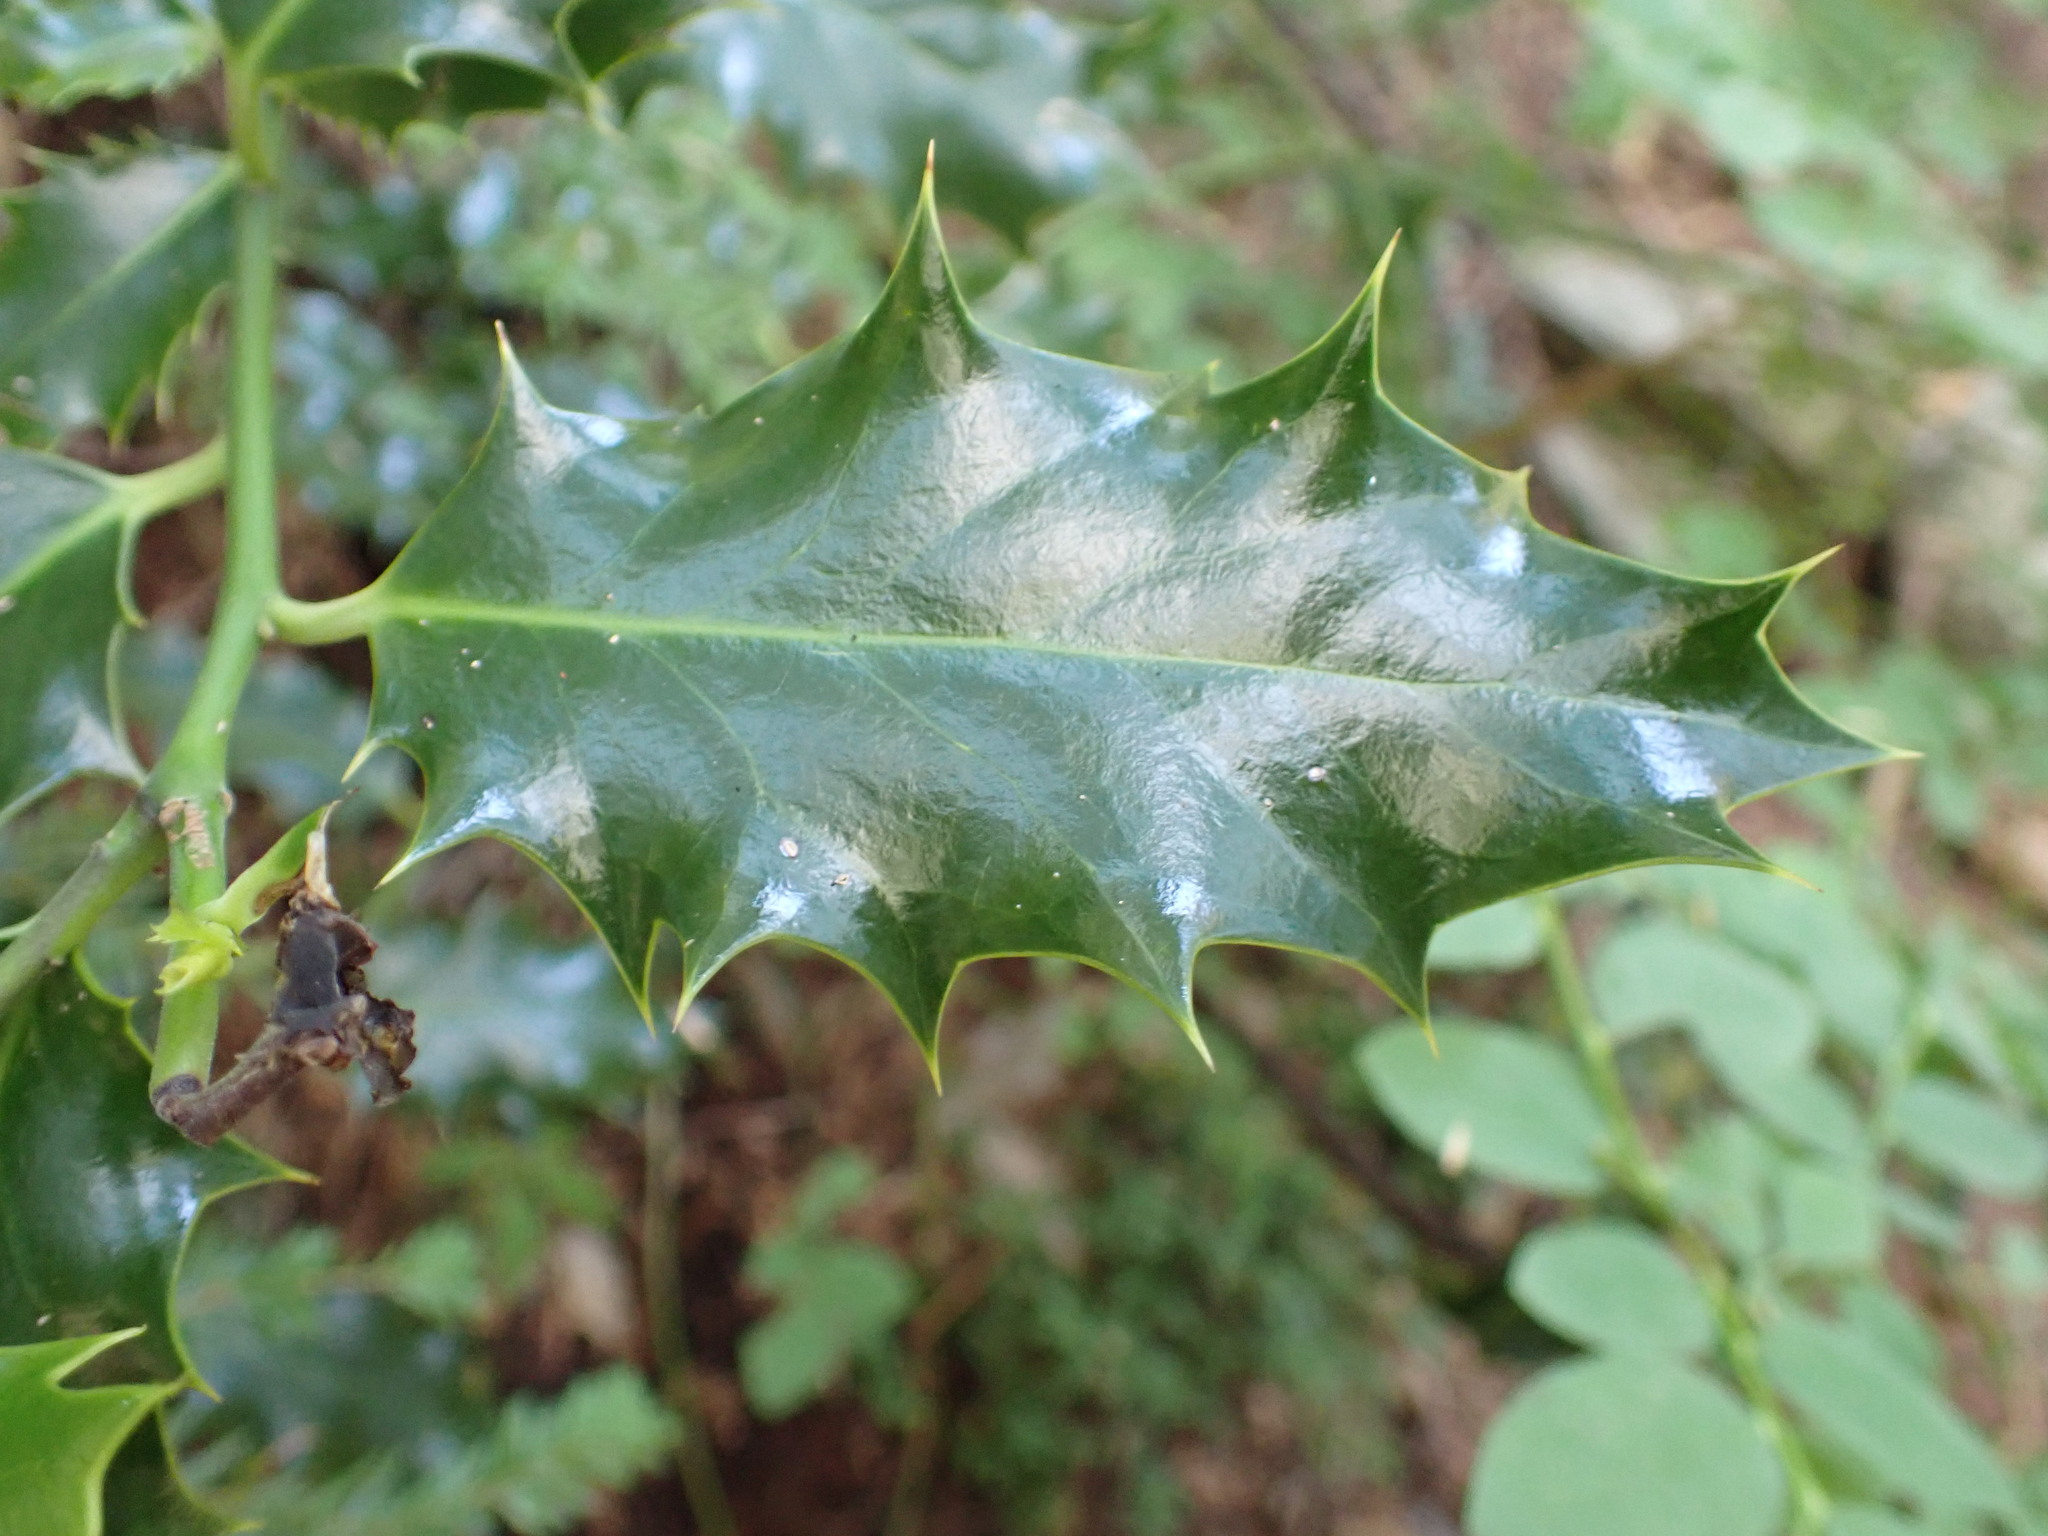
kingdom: Plantae
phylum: Tracheophyta
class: Magnoliopsida
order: Aquifoliales
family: Aquifoliaceae
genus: Ilex
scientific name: Ilex aquifolium
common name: English holly
